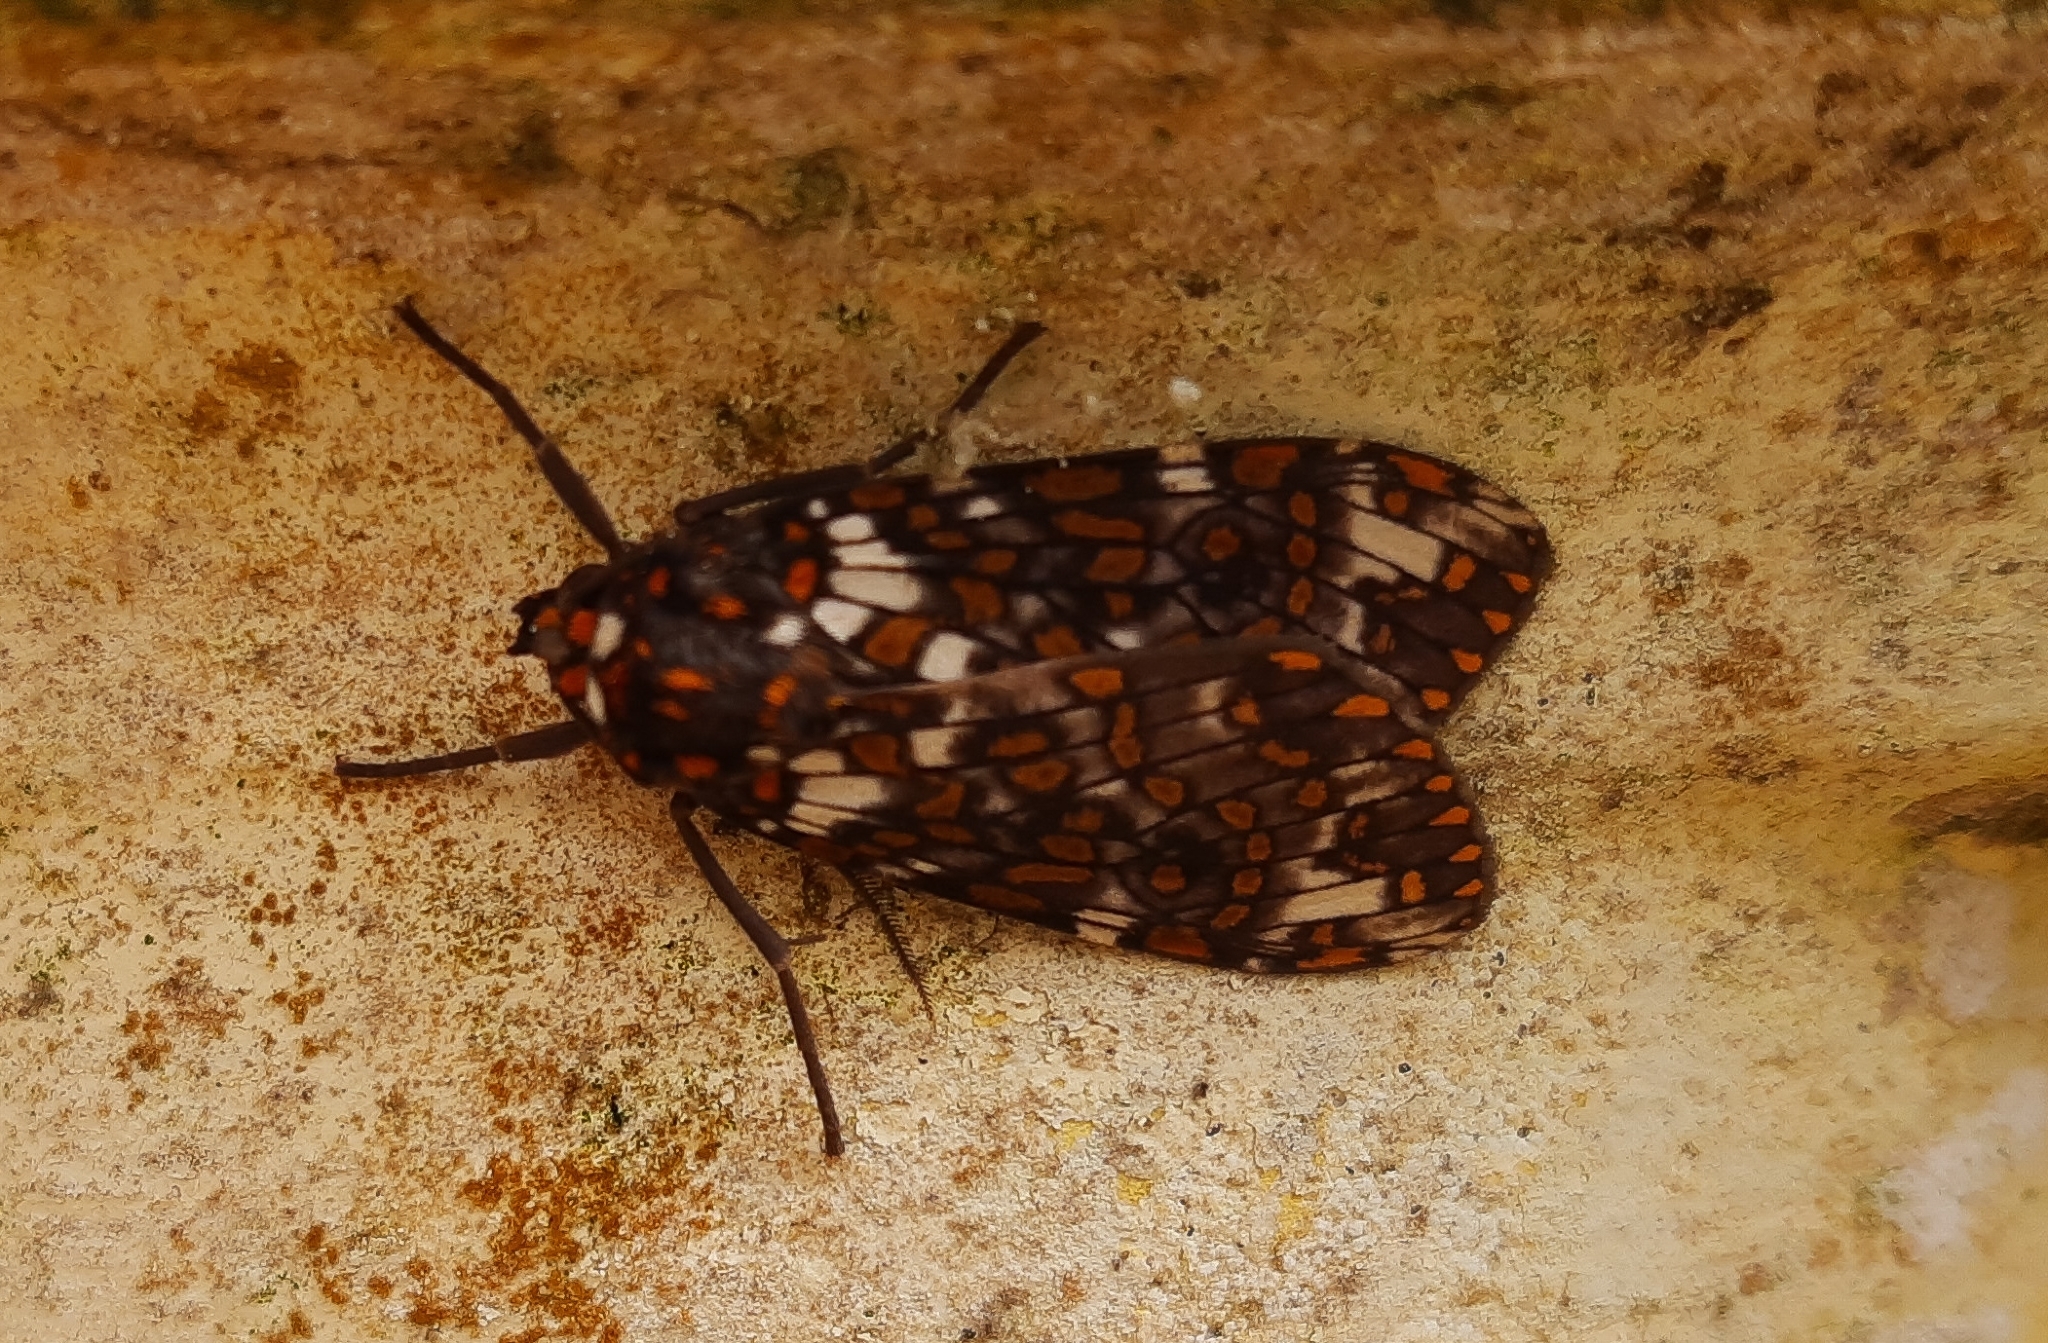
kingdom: Animalia
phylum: Arthropoda
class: Insecta
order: Lepidoptera
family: Erebidae
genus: Phaegoptera
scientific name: Phaegoptera granifera
